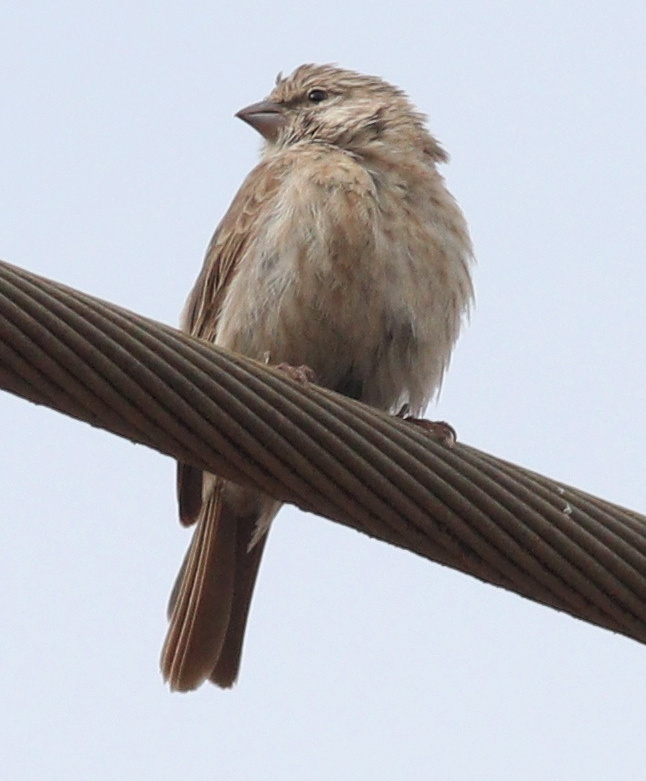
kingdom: Animalia
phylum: Chordata
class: Aves
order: Passeriformes
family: Fringillidae
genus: Crithagra
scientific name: Crithagra menachensis
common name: Yemen serin
